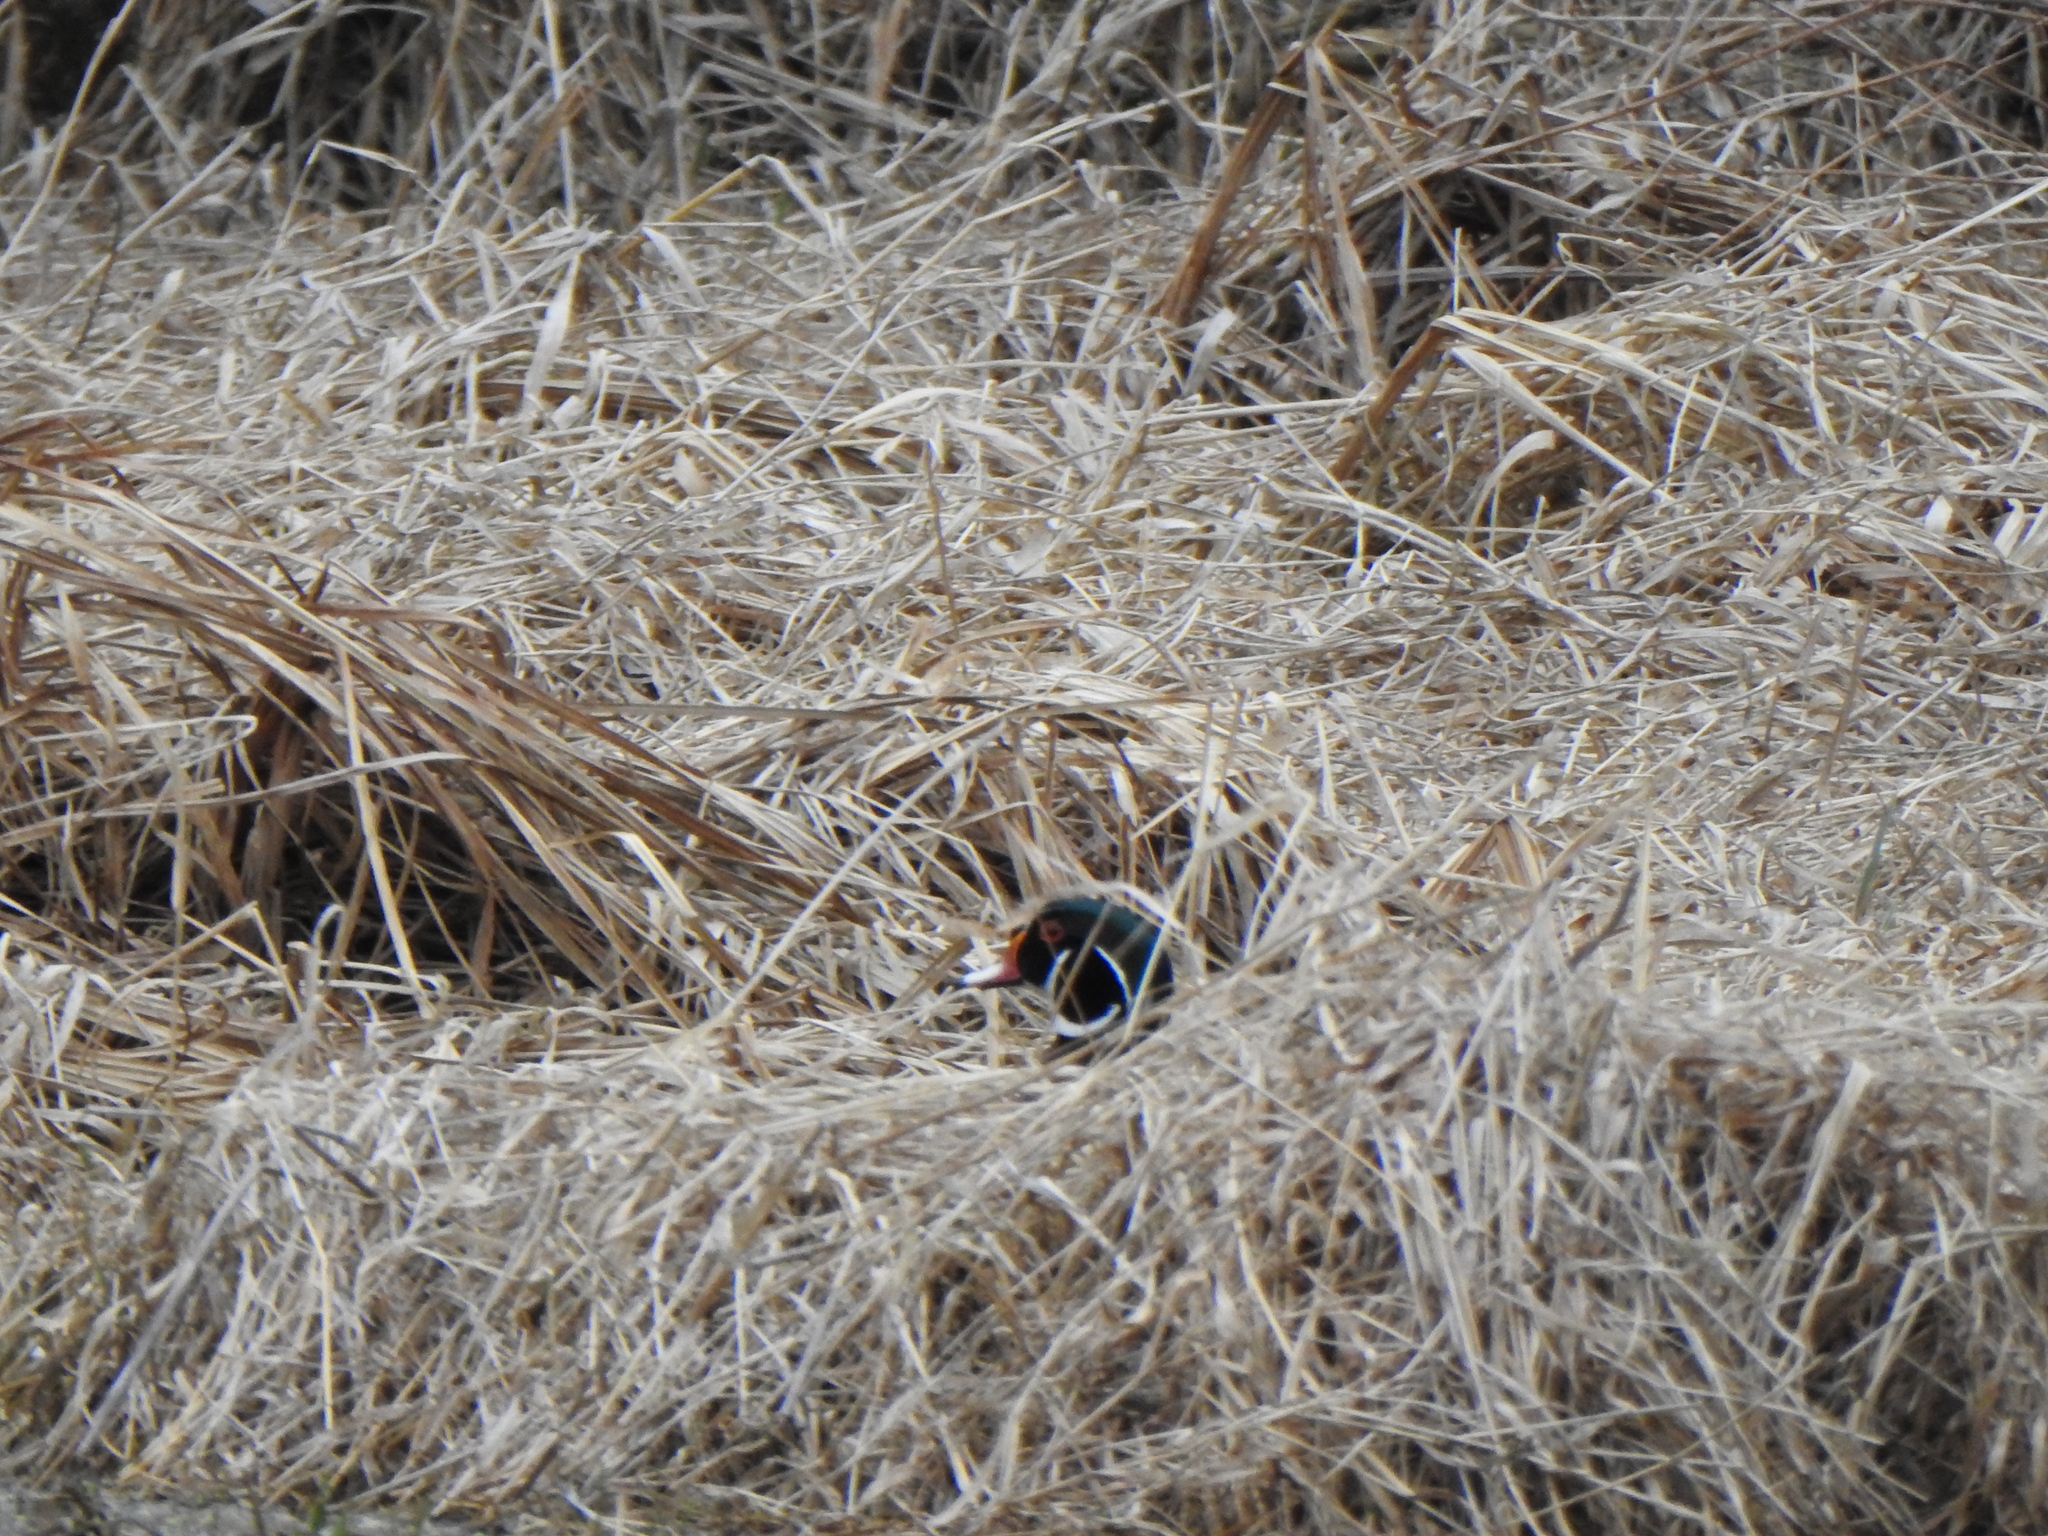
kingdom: Animalia
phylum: Chordata
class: Aves
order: Anseriformes
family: Anatidae
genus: Aix
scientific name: Aix sponsa
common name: Wood duck
